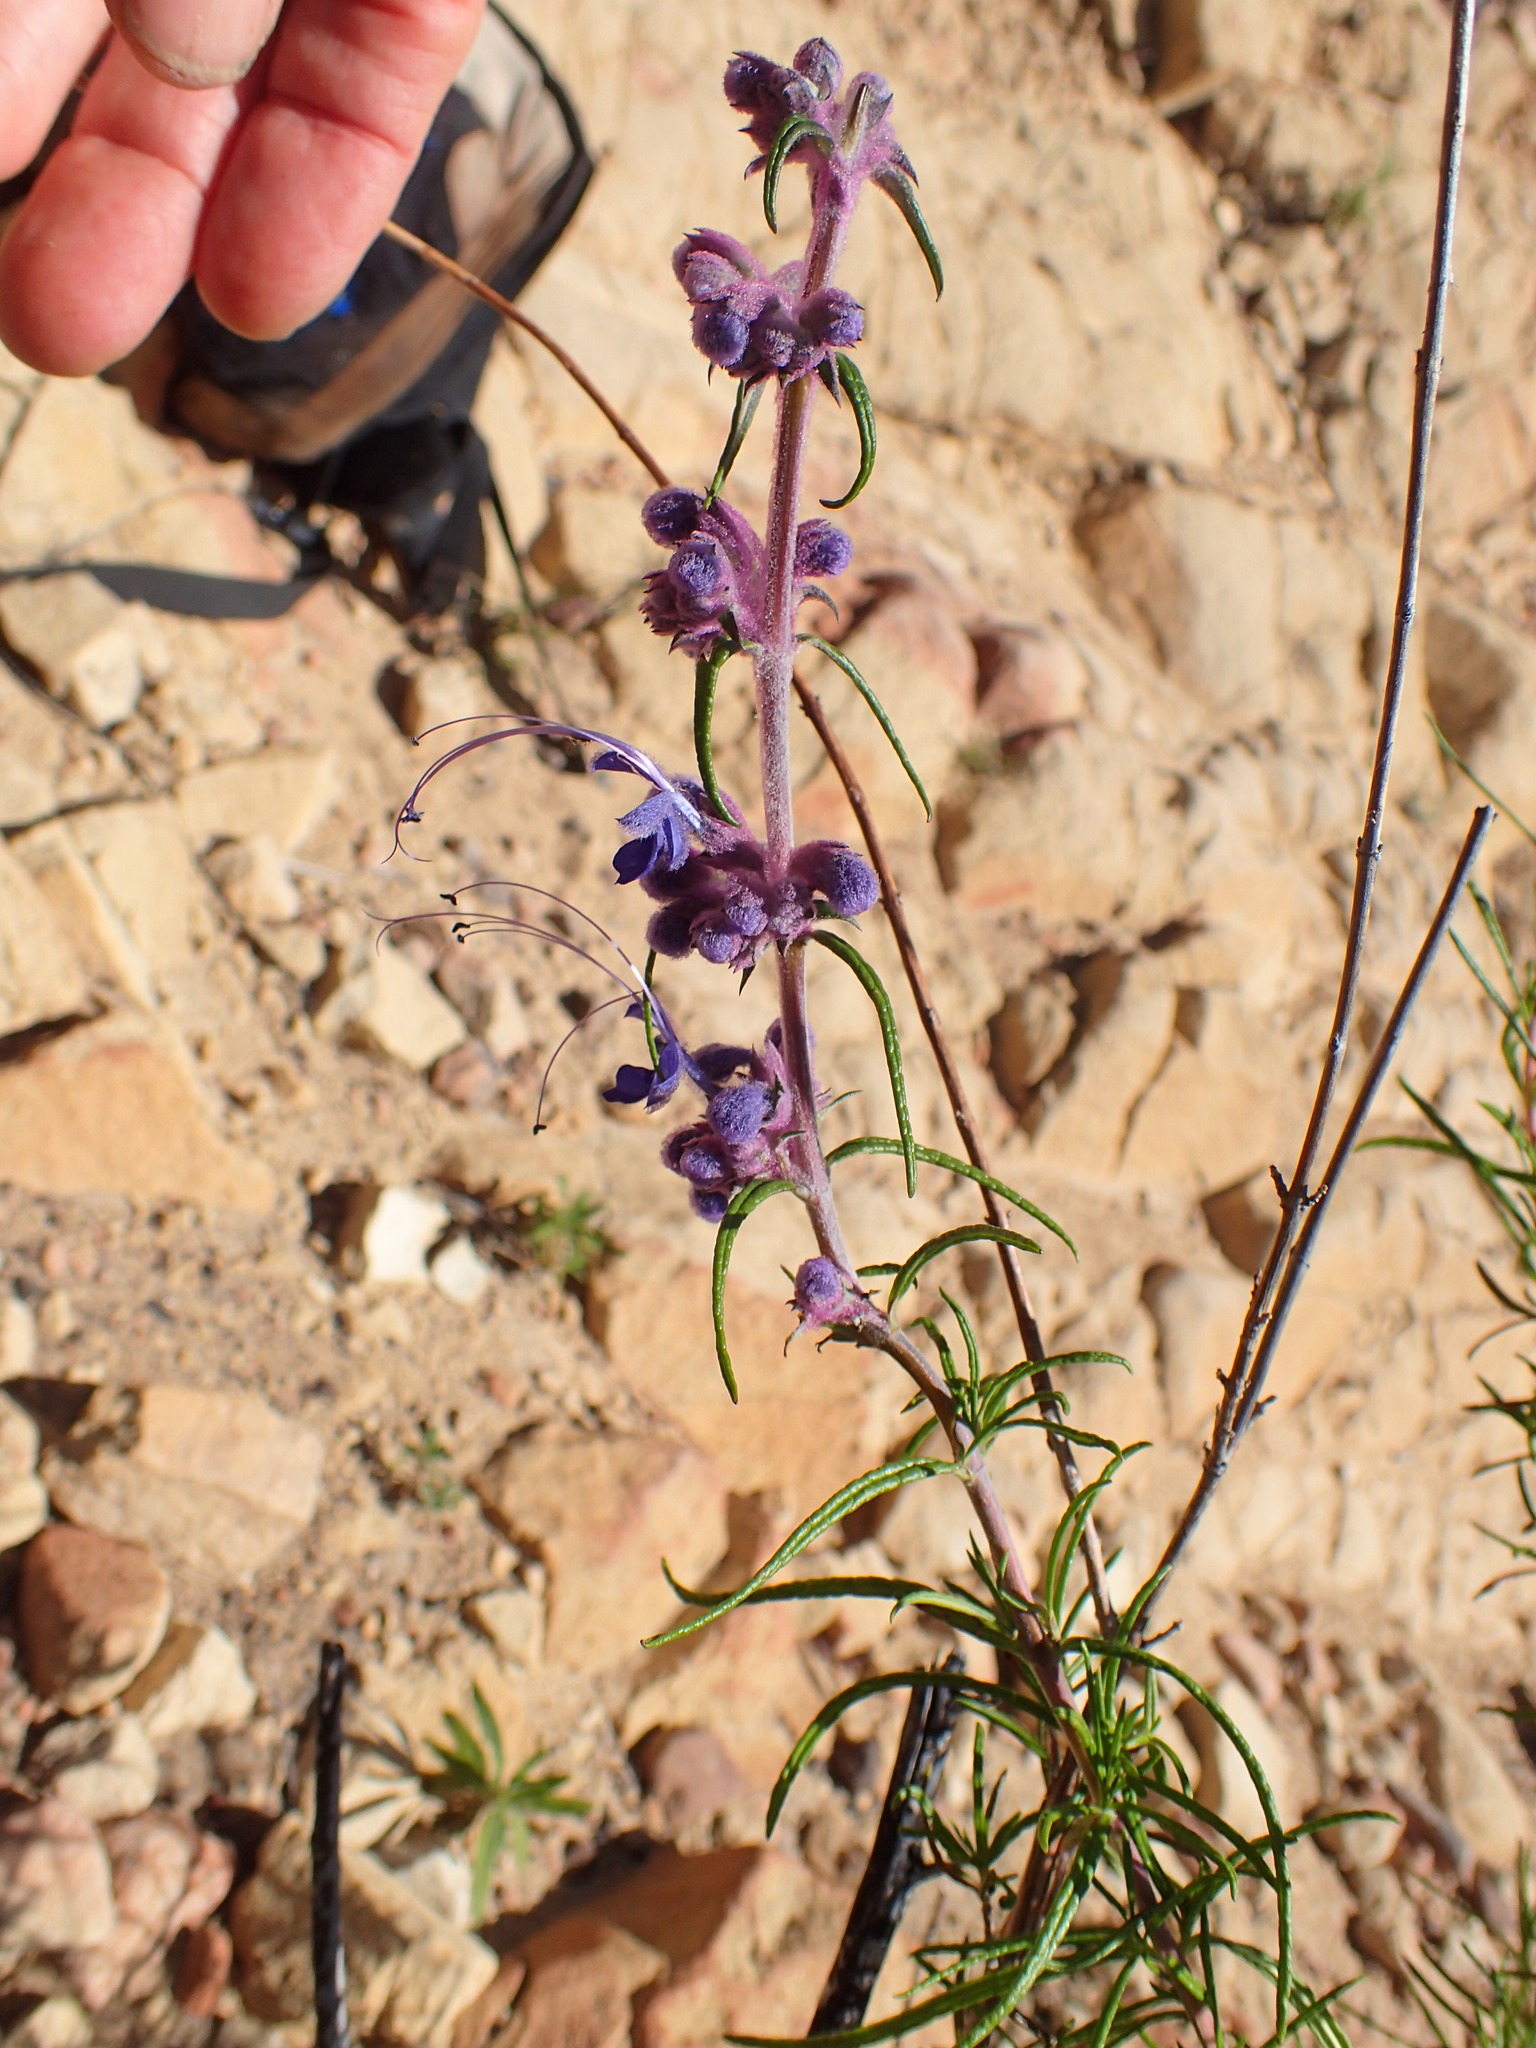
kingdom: Plantae
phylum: Tracheophyta
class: Magnoliopsida
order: Lamiales
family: Lamiaceae
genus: Trichostema
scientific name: Trichostema lanatum
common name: Woolly bluecurls
